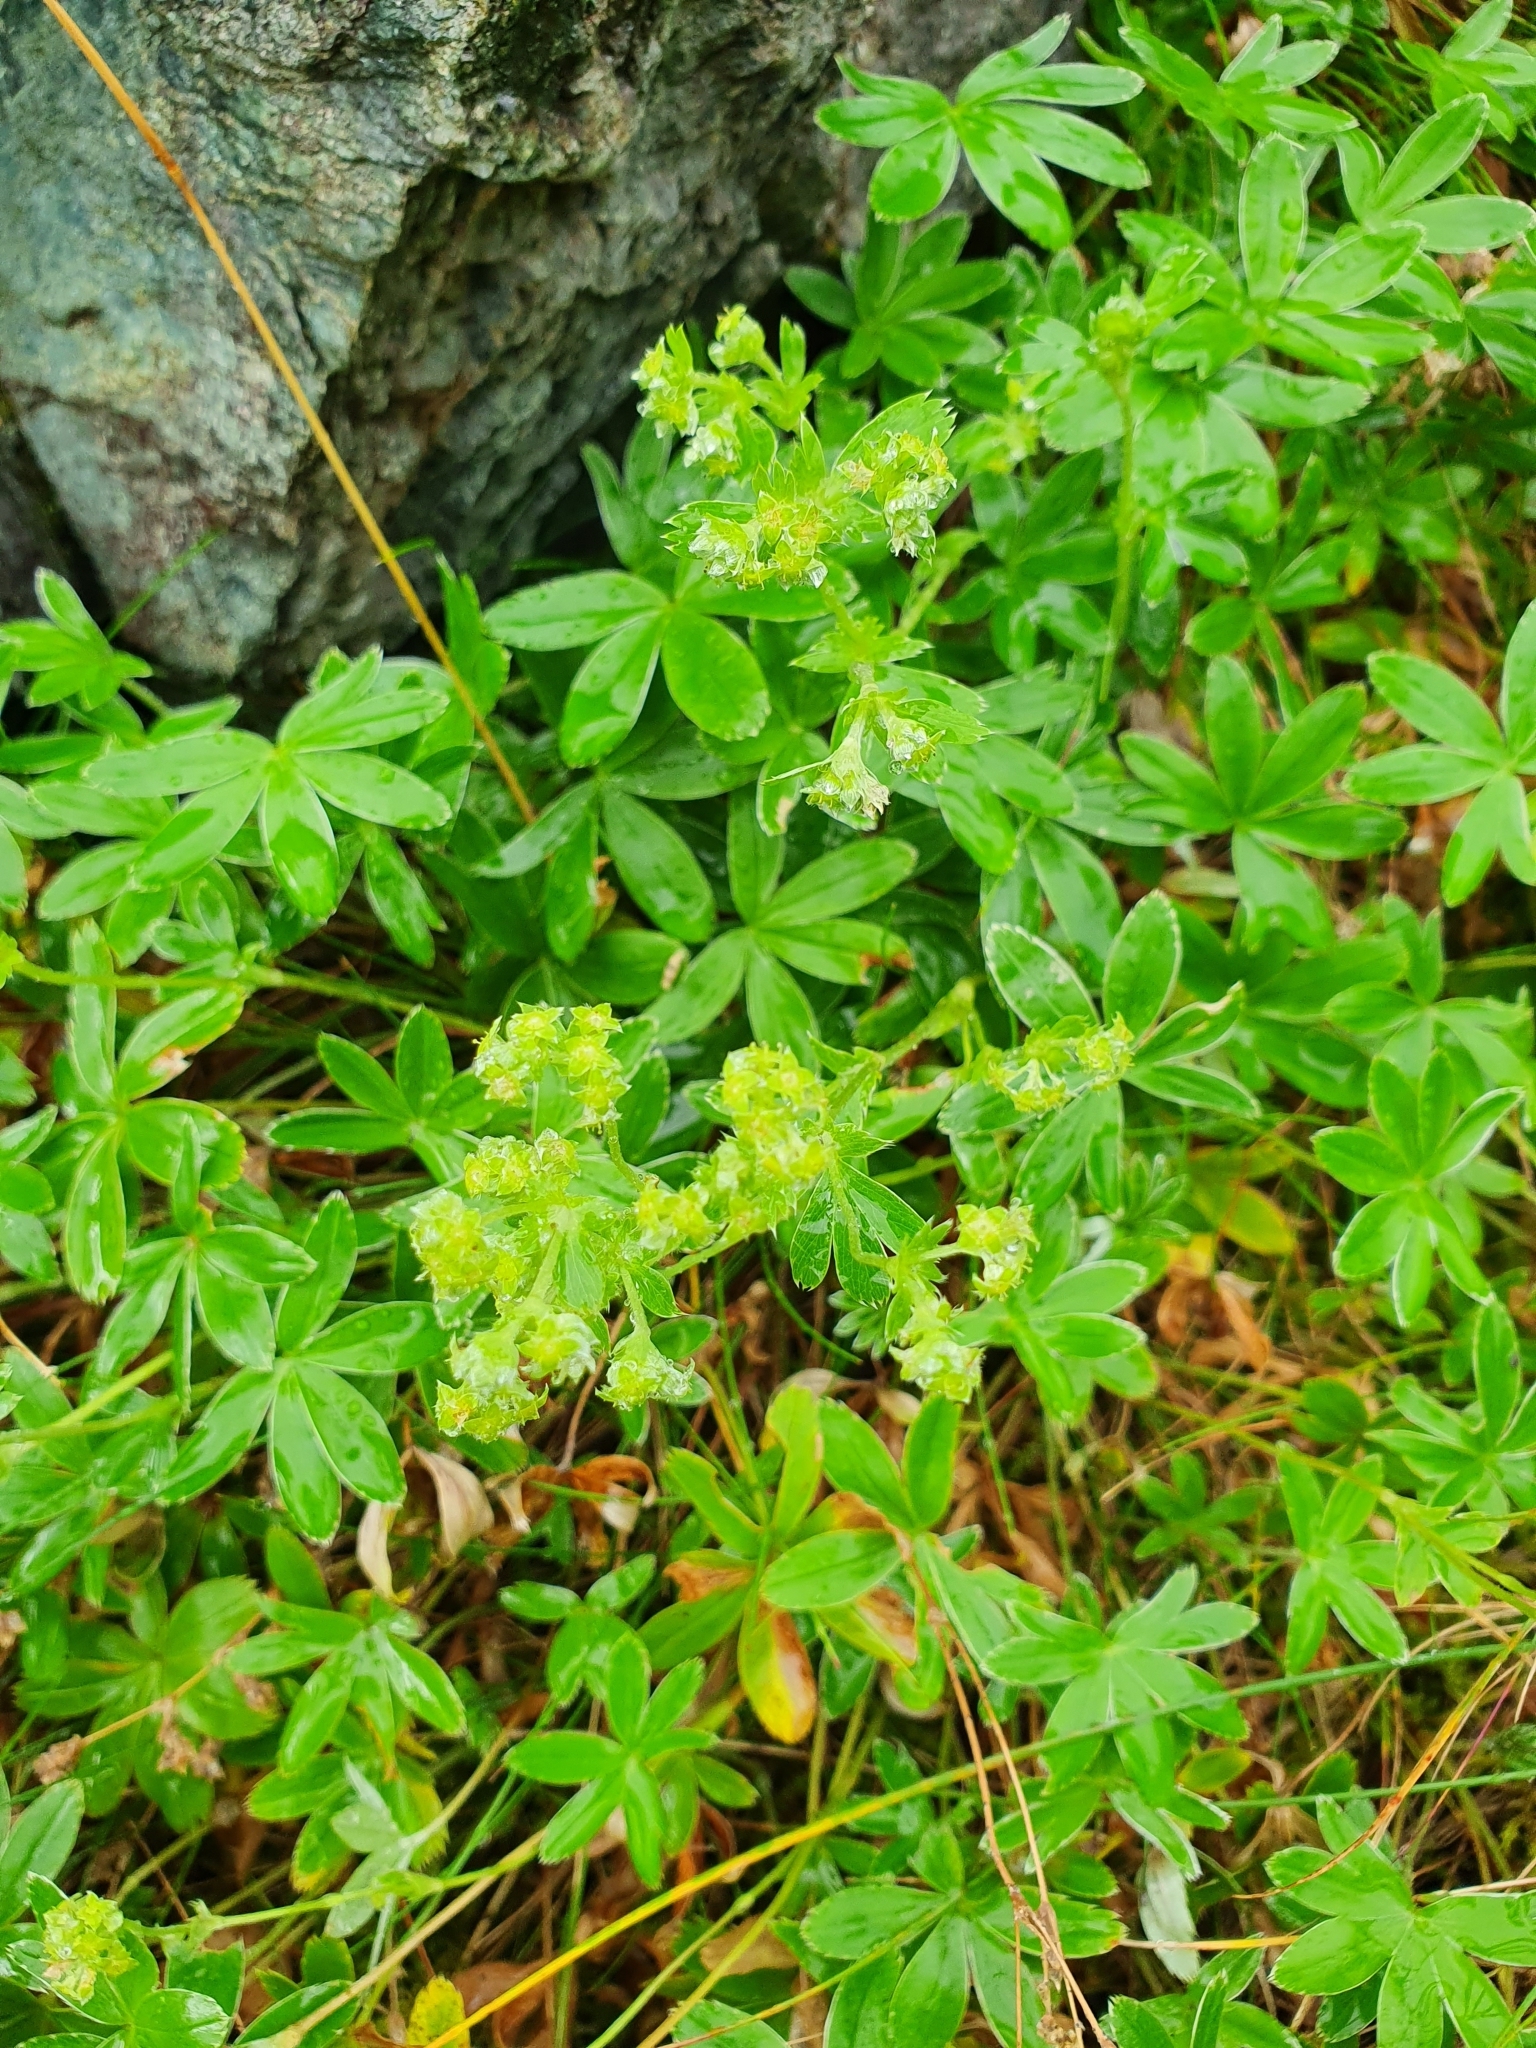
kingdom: Plantae
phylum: Tracheophyta
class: Magnoliopsida
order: Rosales
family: Rosaceae
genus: Alchemilla
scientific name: Alchemilla alpina
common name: Alpine lady's-mantle
